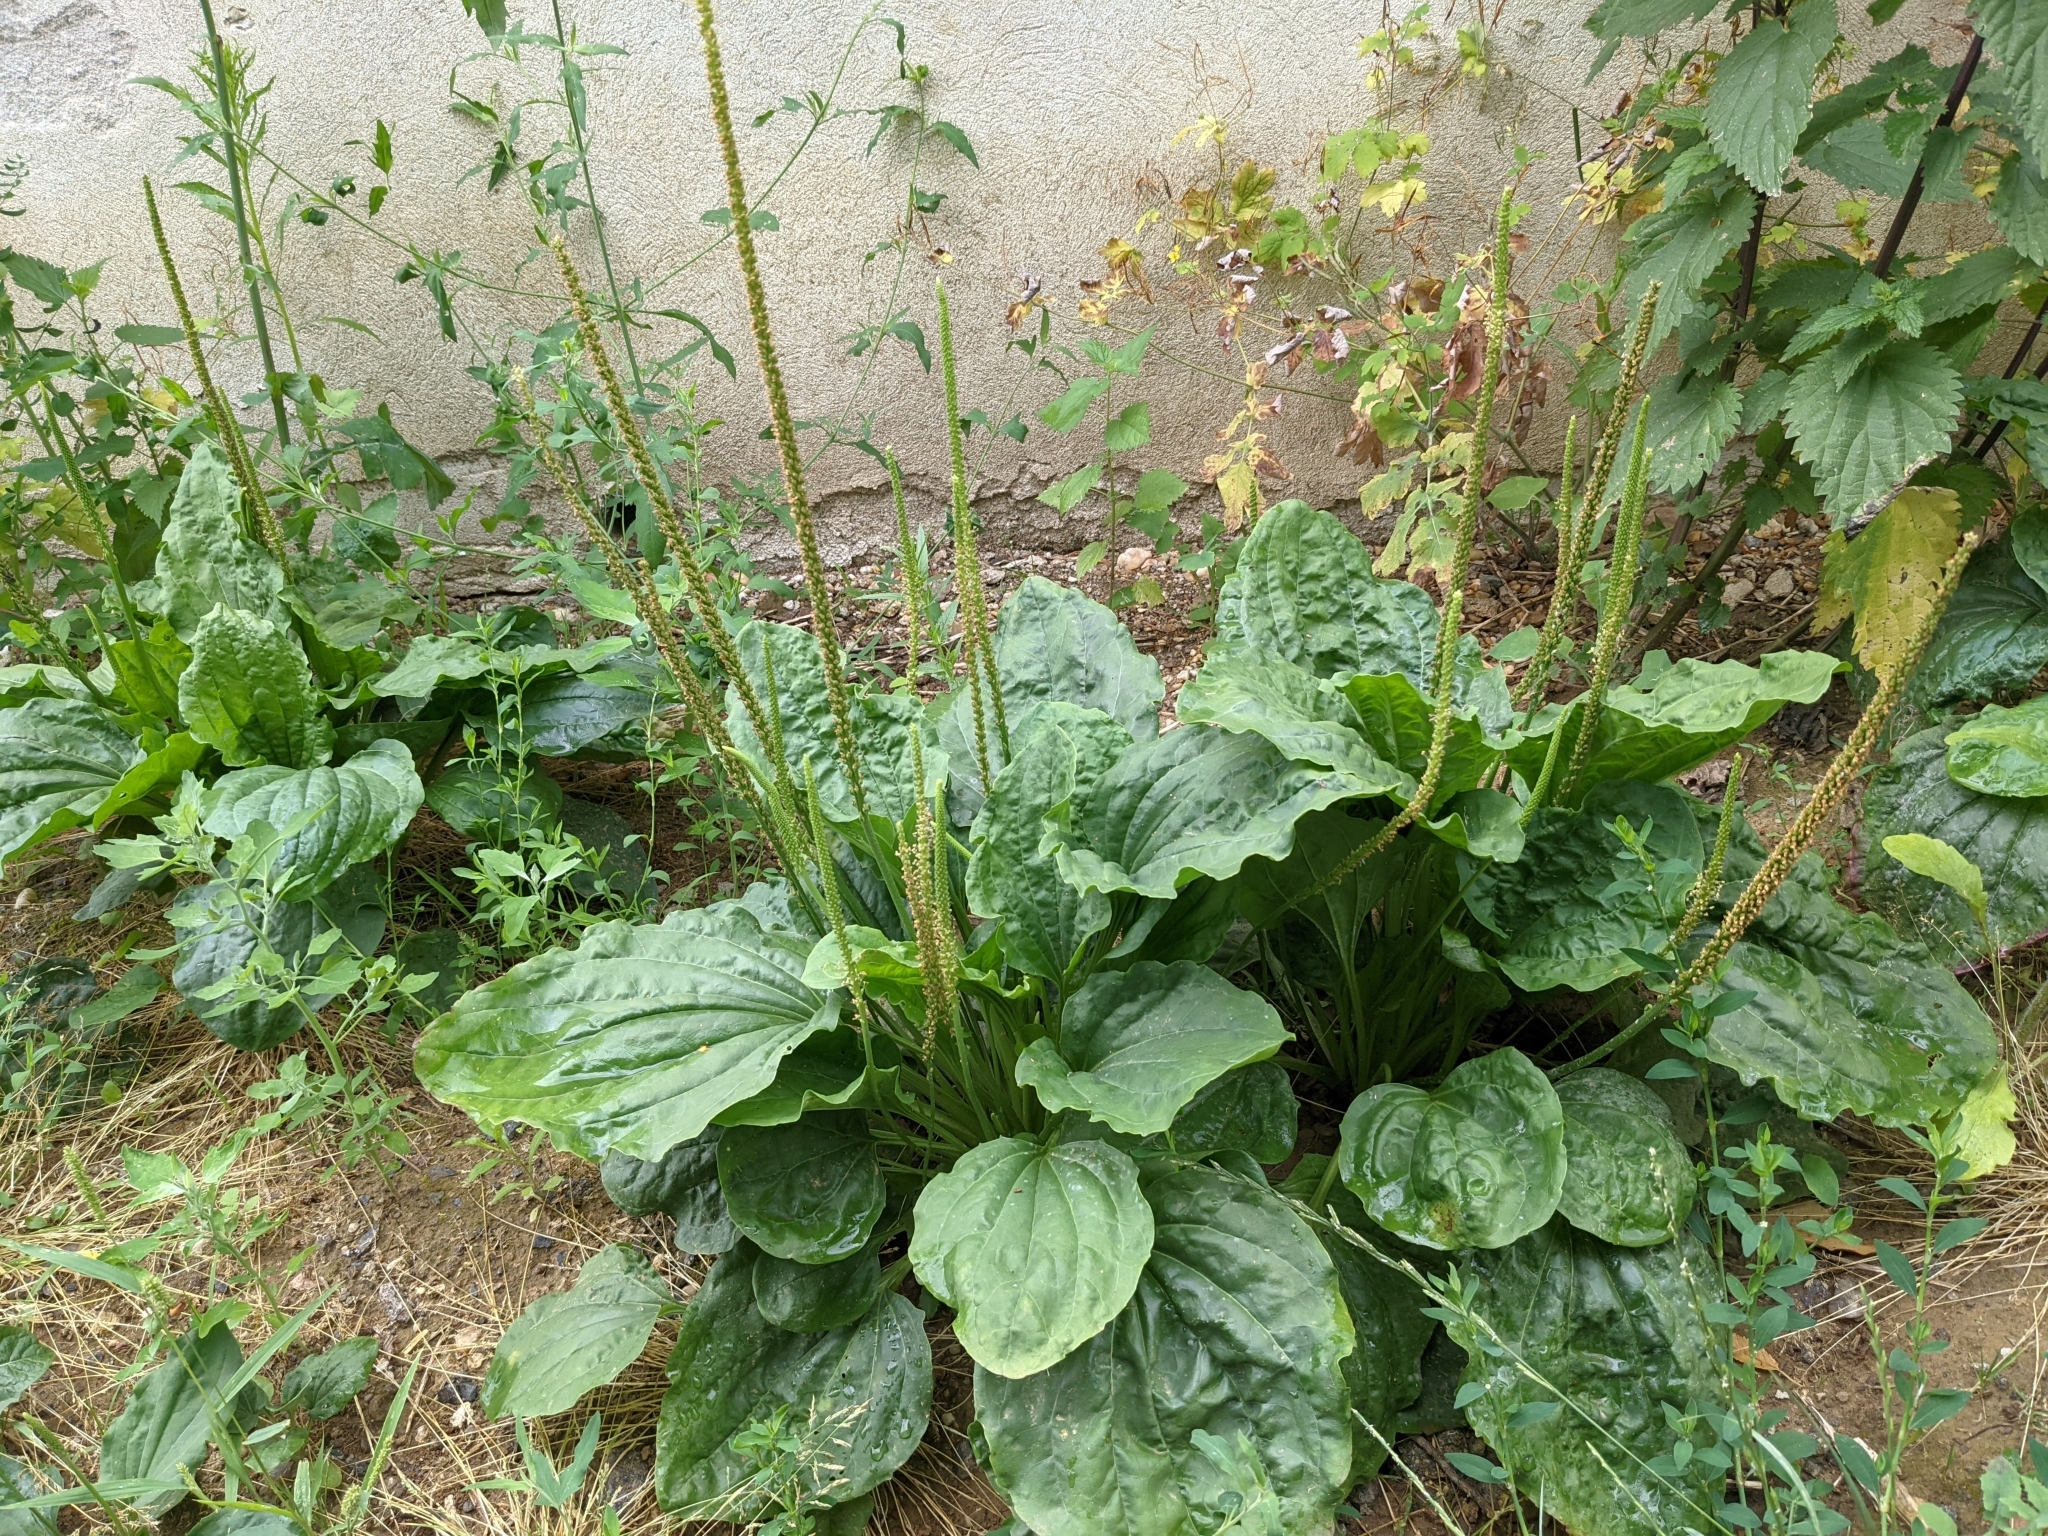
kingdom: Plantae
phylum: Tracheophyta
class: Magnoliopsida
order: Lamiales
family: Plantaginaceae
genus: Plantago
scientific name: Plantago major
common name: Common plantain
